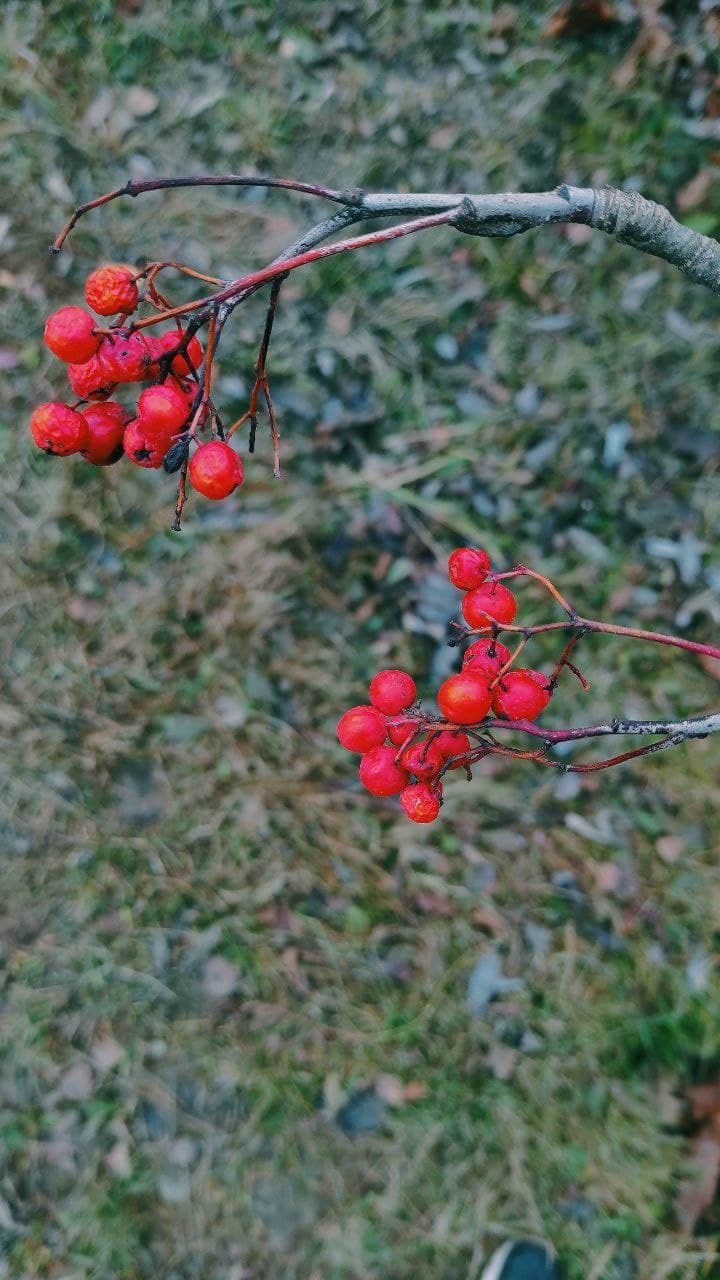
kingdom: Plantae
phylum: Tracheophyta
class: Magnoliopsida
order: Rosales
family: Rosaceae
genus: Sorbus
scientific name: Sorbus aucuparia
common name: Rowan
